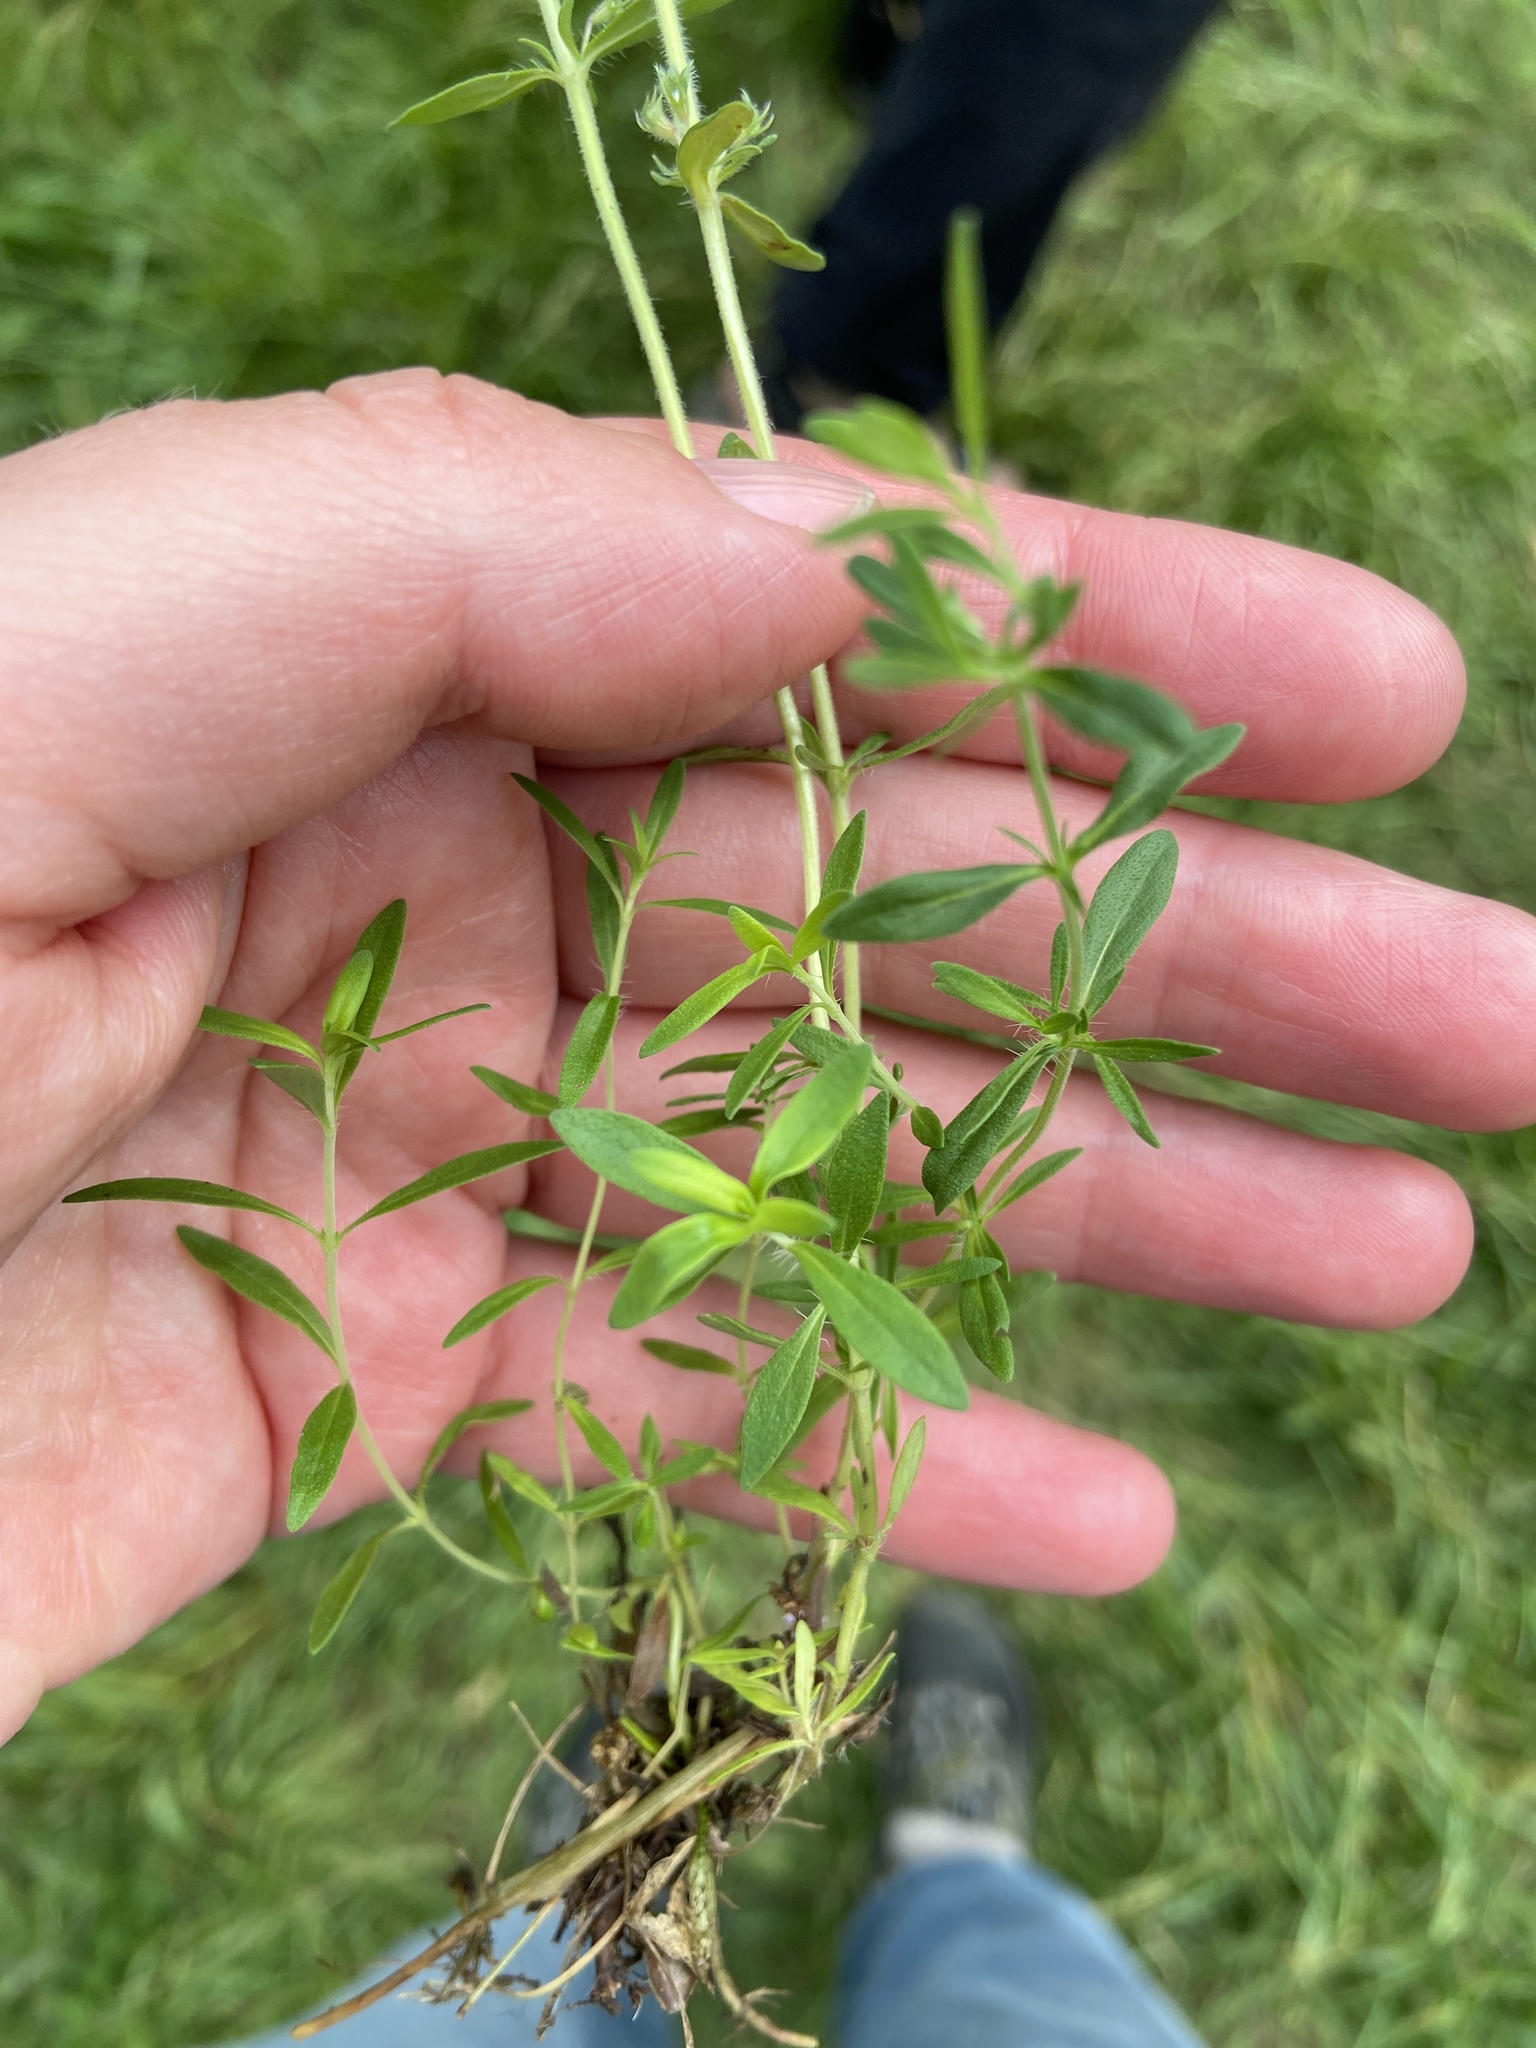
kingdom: Plantae
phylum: Tracheophyta
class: Magnoliopsida
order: Lamiales
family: Lamiaceae
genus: Thymus
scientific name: Thymus pannonicus
